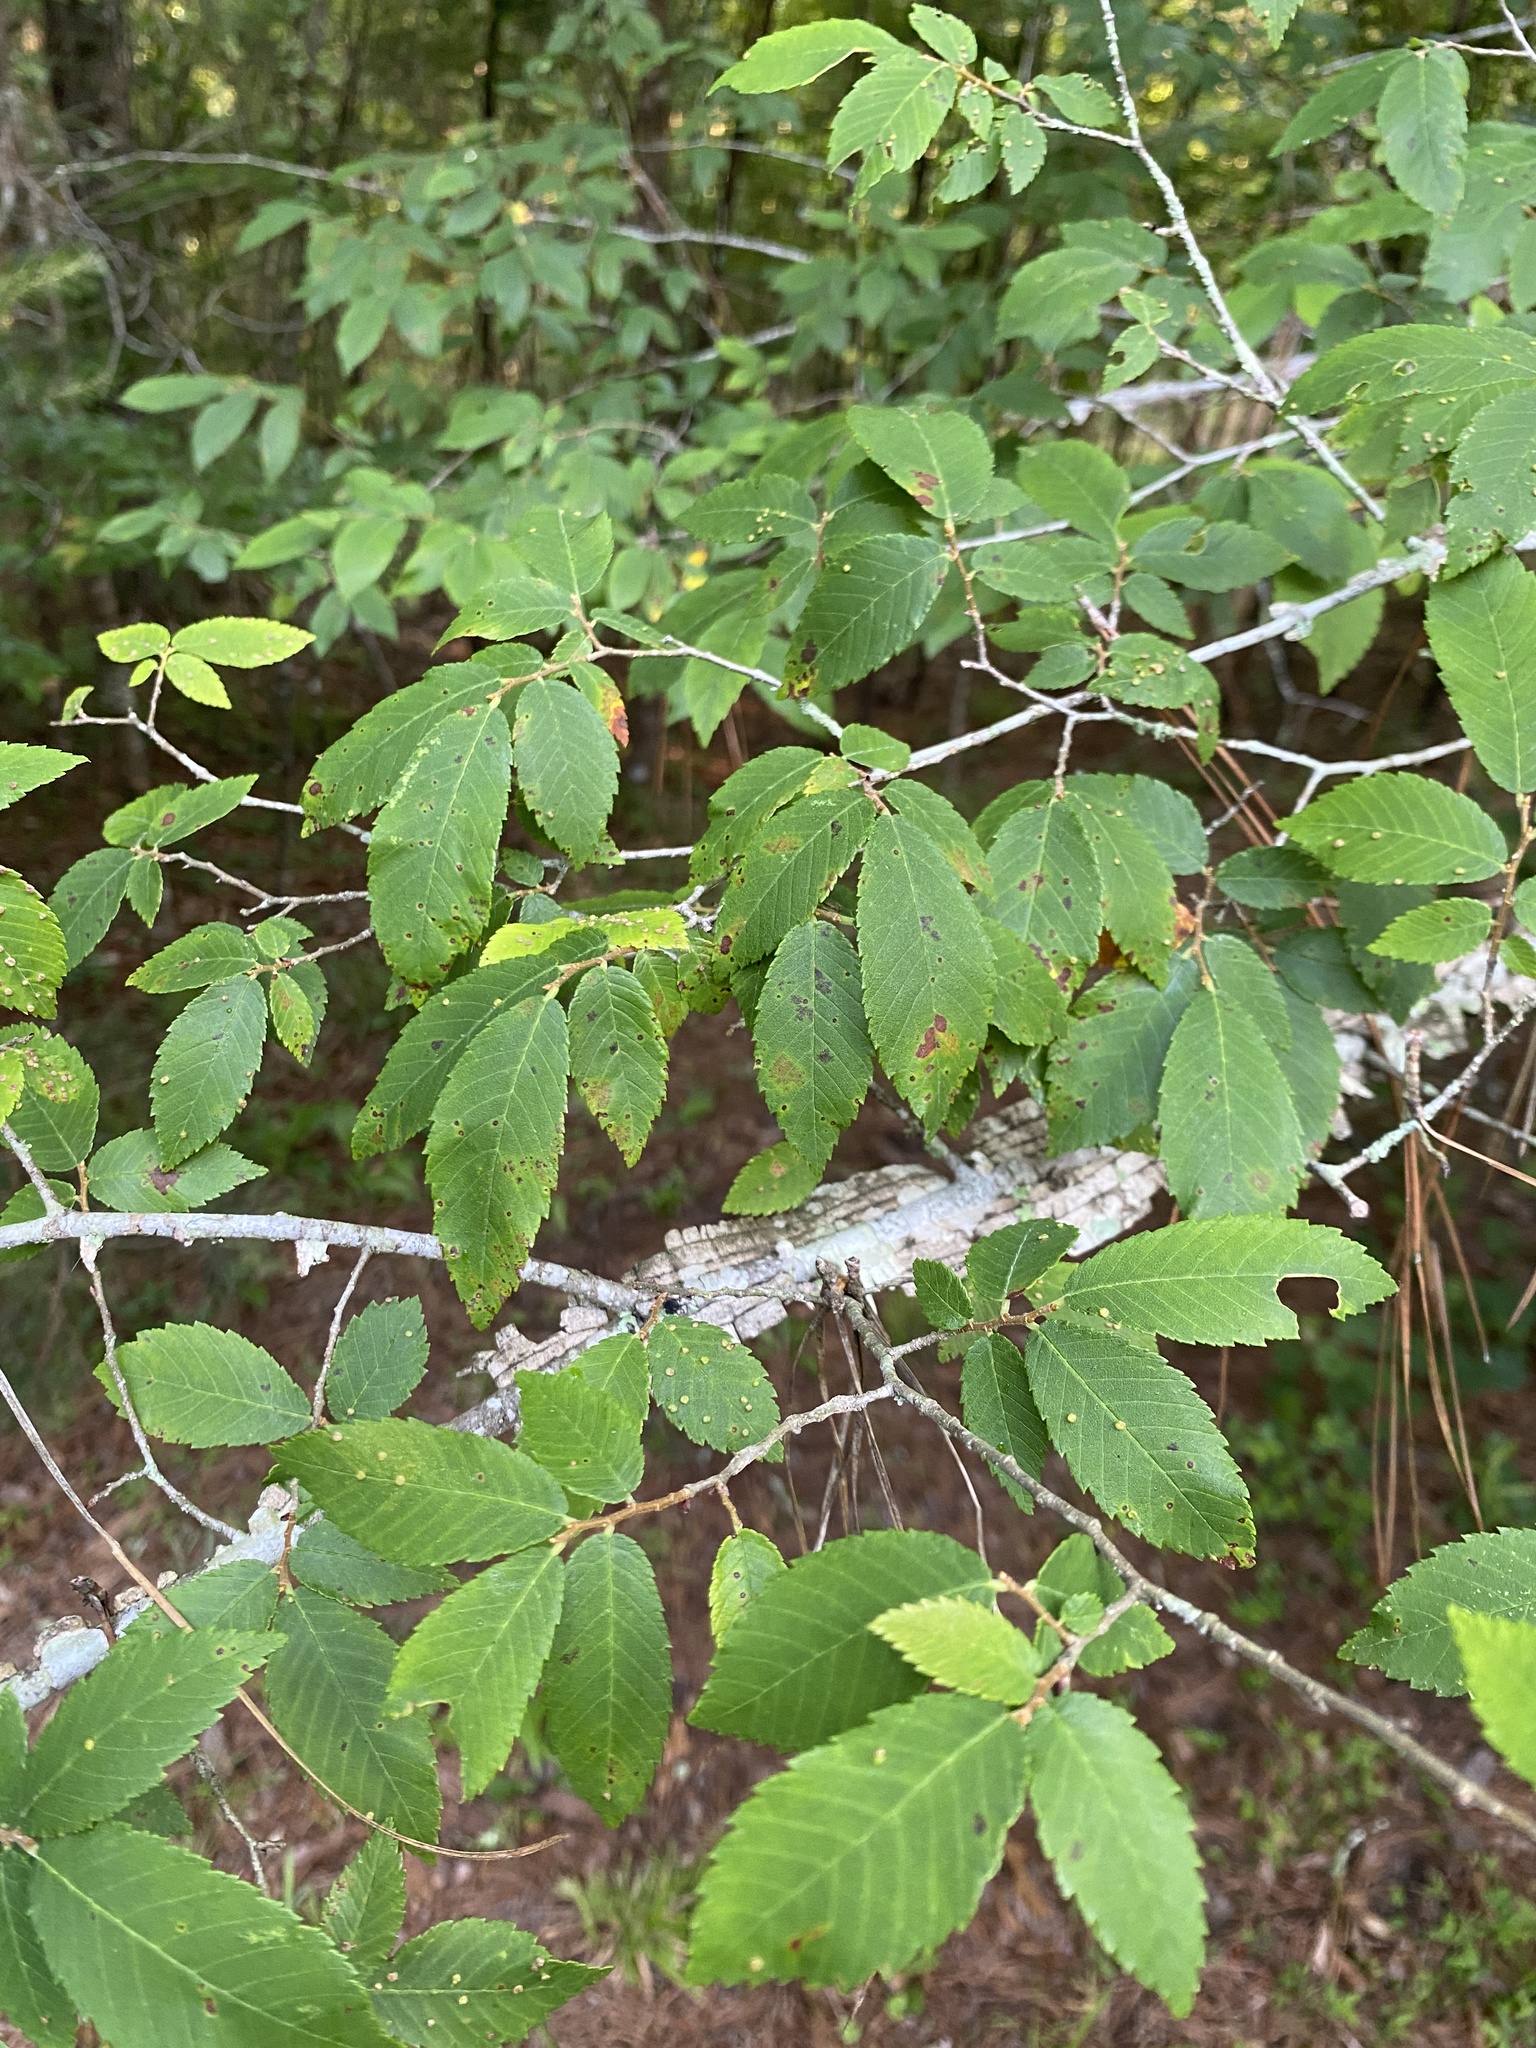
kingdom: Plantae
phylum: Tracheophyta
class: Magnoliopsida
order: Rosales
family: Ulmaceae
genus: Ulmus
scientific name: Ulmus alata
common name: Winged elm
